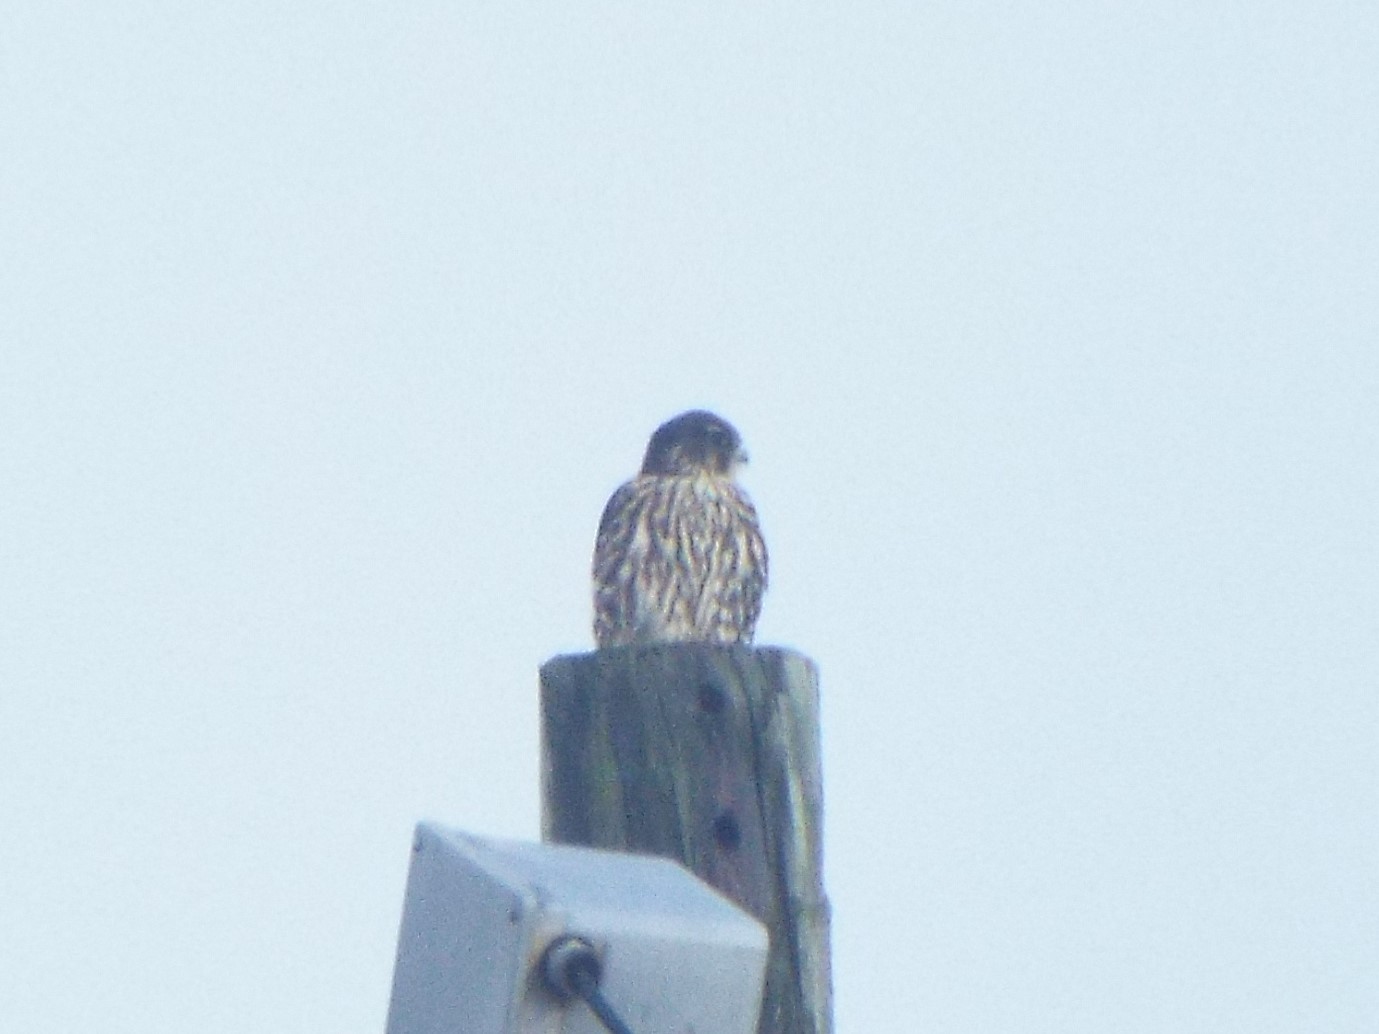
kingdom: Animalia
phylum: Chordata
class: Aves
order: Falconiformes
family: Falconidae
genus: Falco
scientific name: Falco columbarius
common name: Merlin
